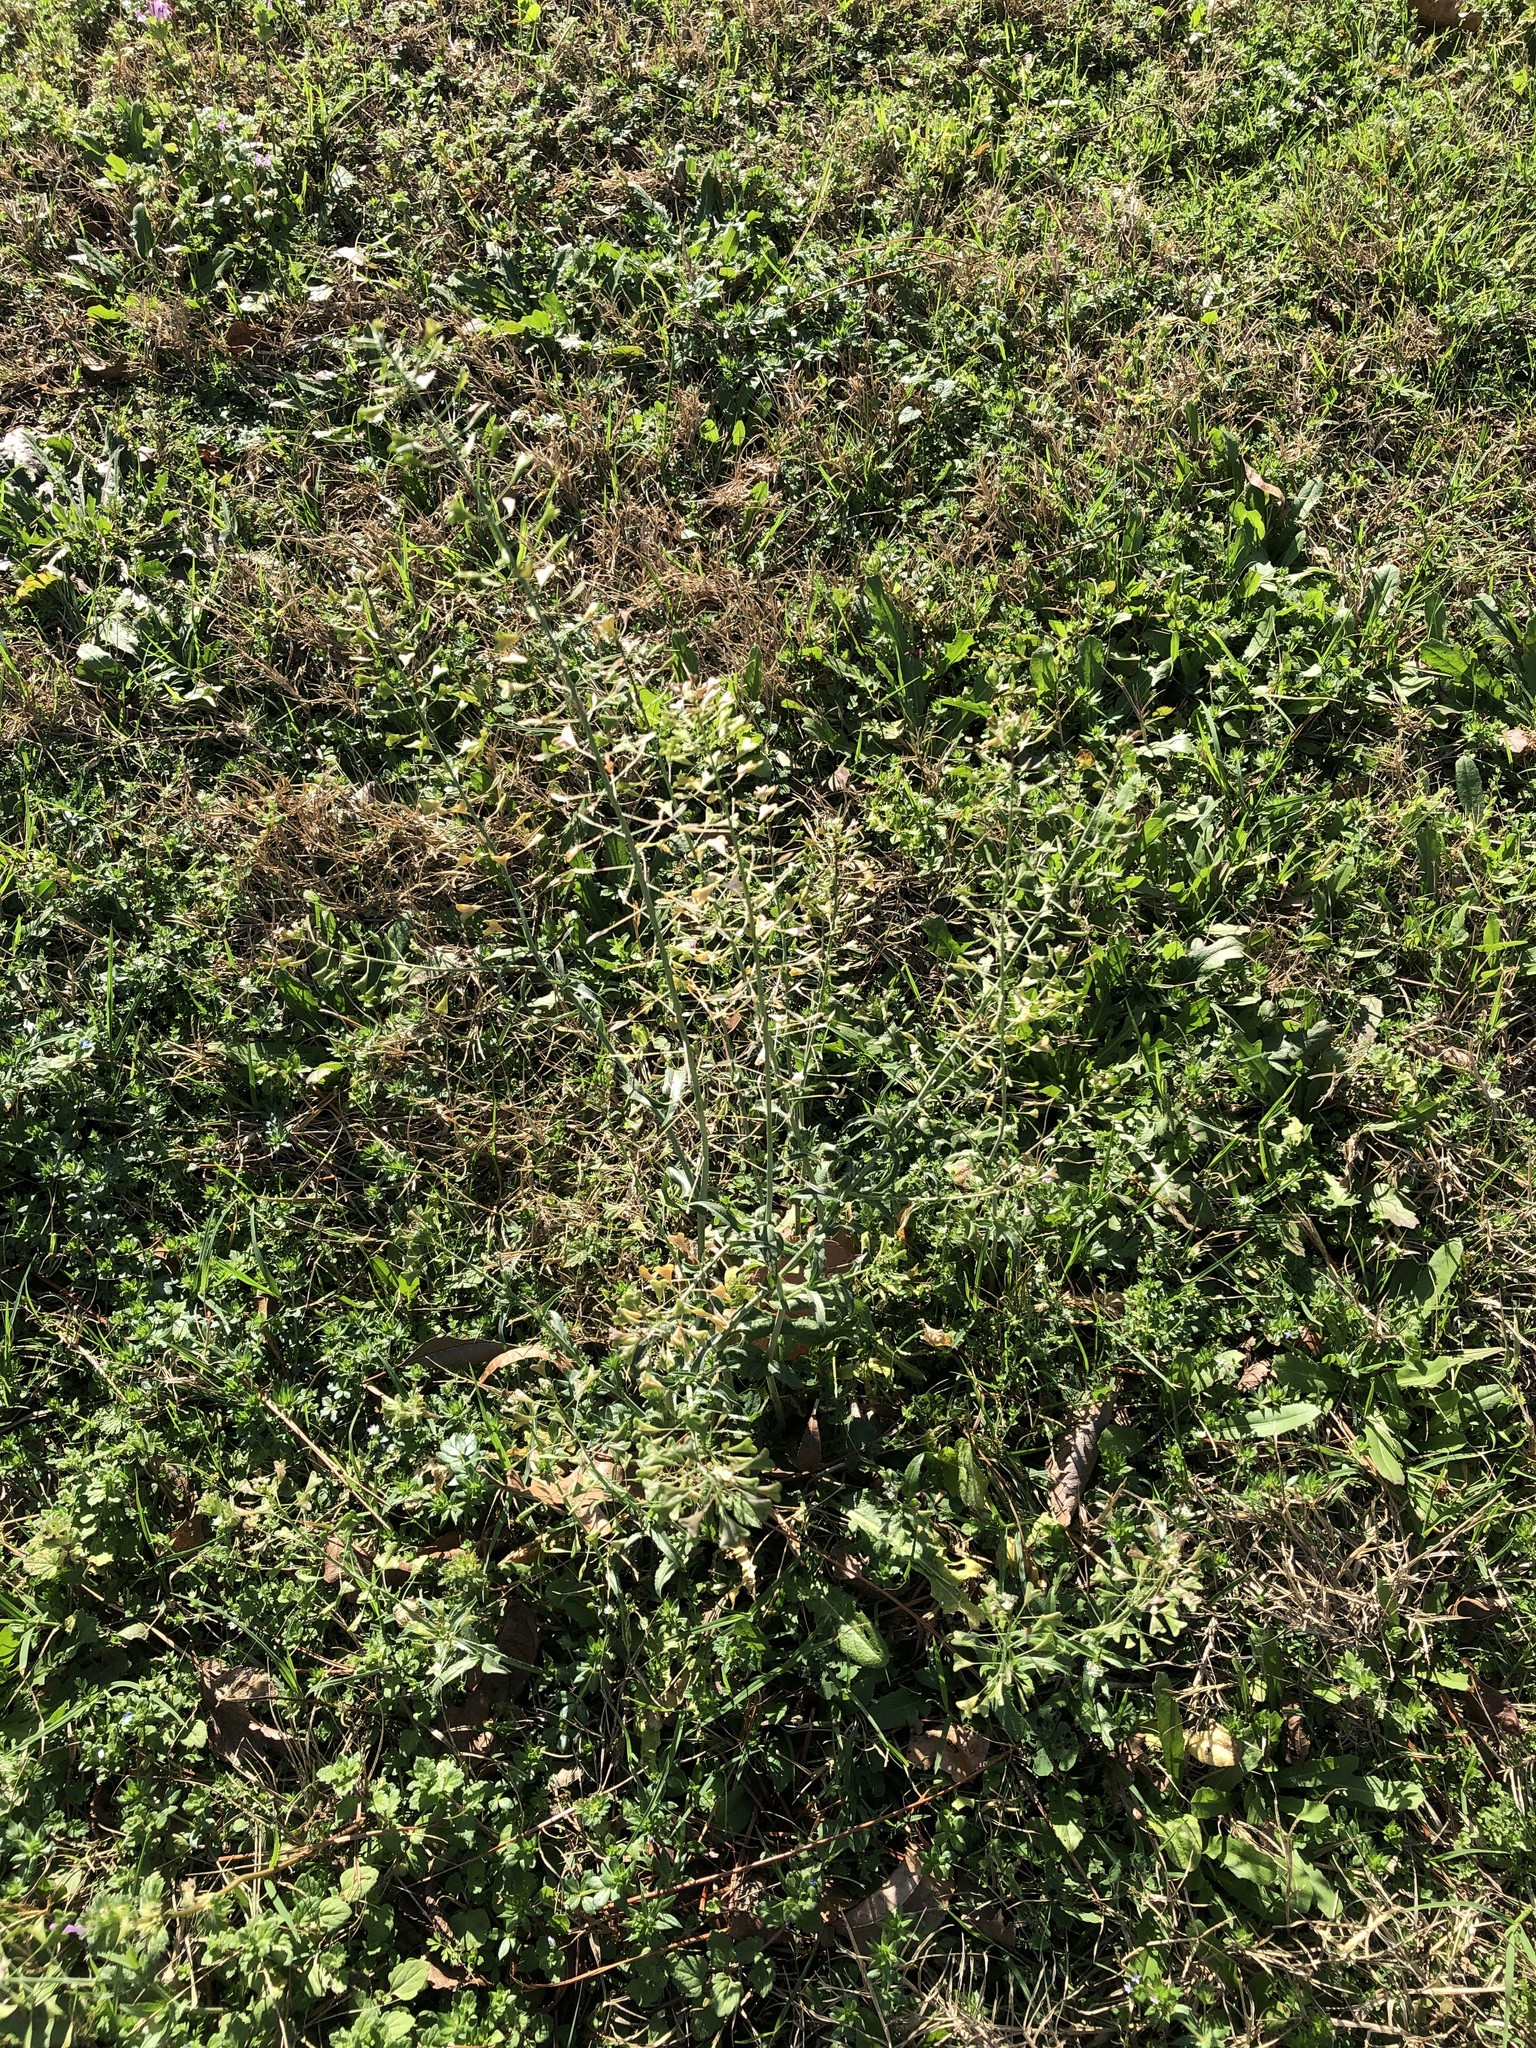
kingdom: Plantae
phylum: Tracheophyta
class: Magnoliopsida
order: Brassicales
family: Brassicaceae
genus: Capsella
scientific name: Capsella bursa-pastoris
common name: Shepherd's purse
